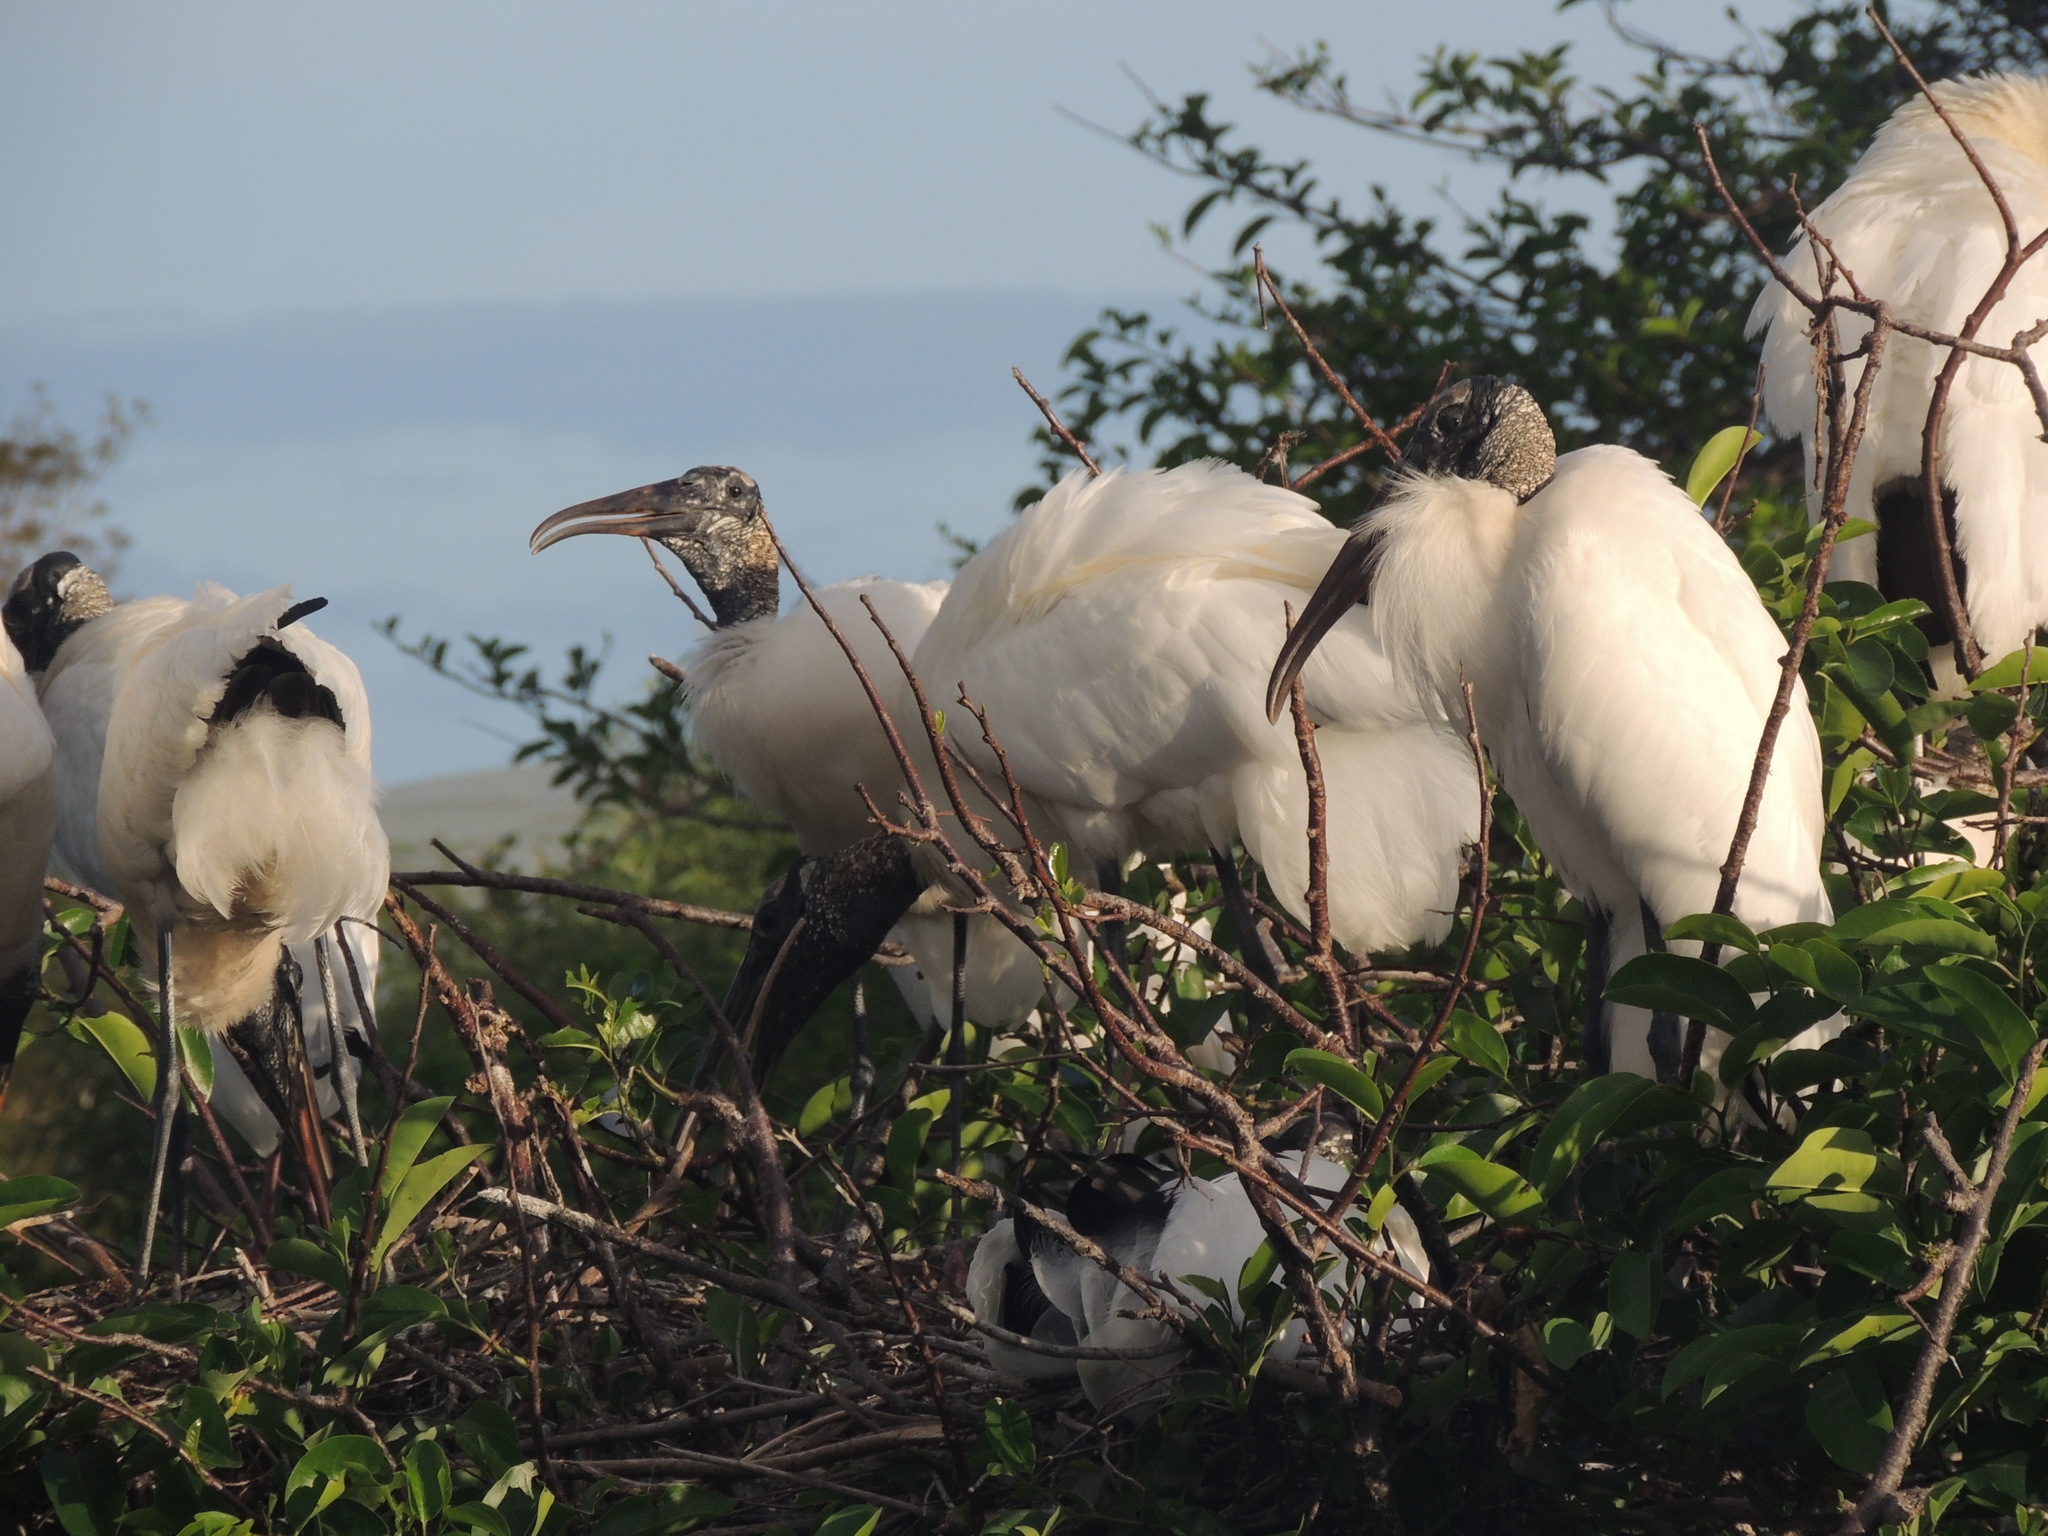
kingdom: Animalia
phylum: Chordata
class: Aves
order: Ciconiiformes
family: Ciconiidae
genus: Mycteria
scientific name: Mycteria americana
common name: Wood stork
